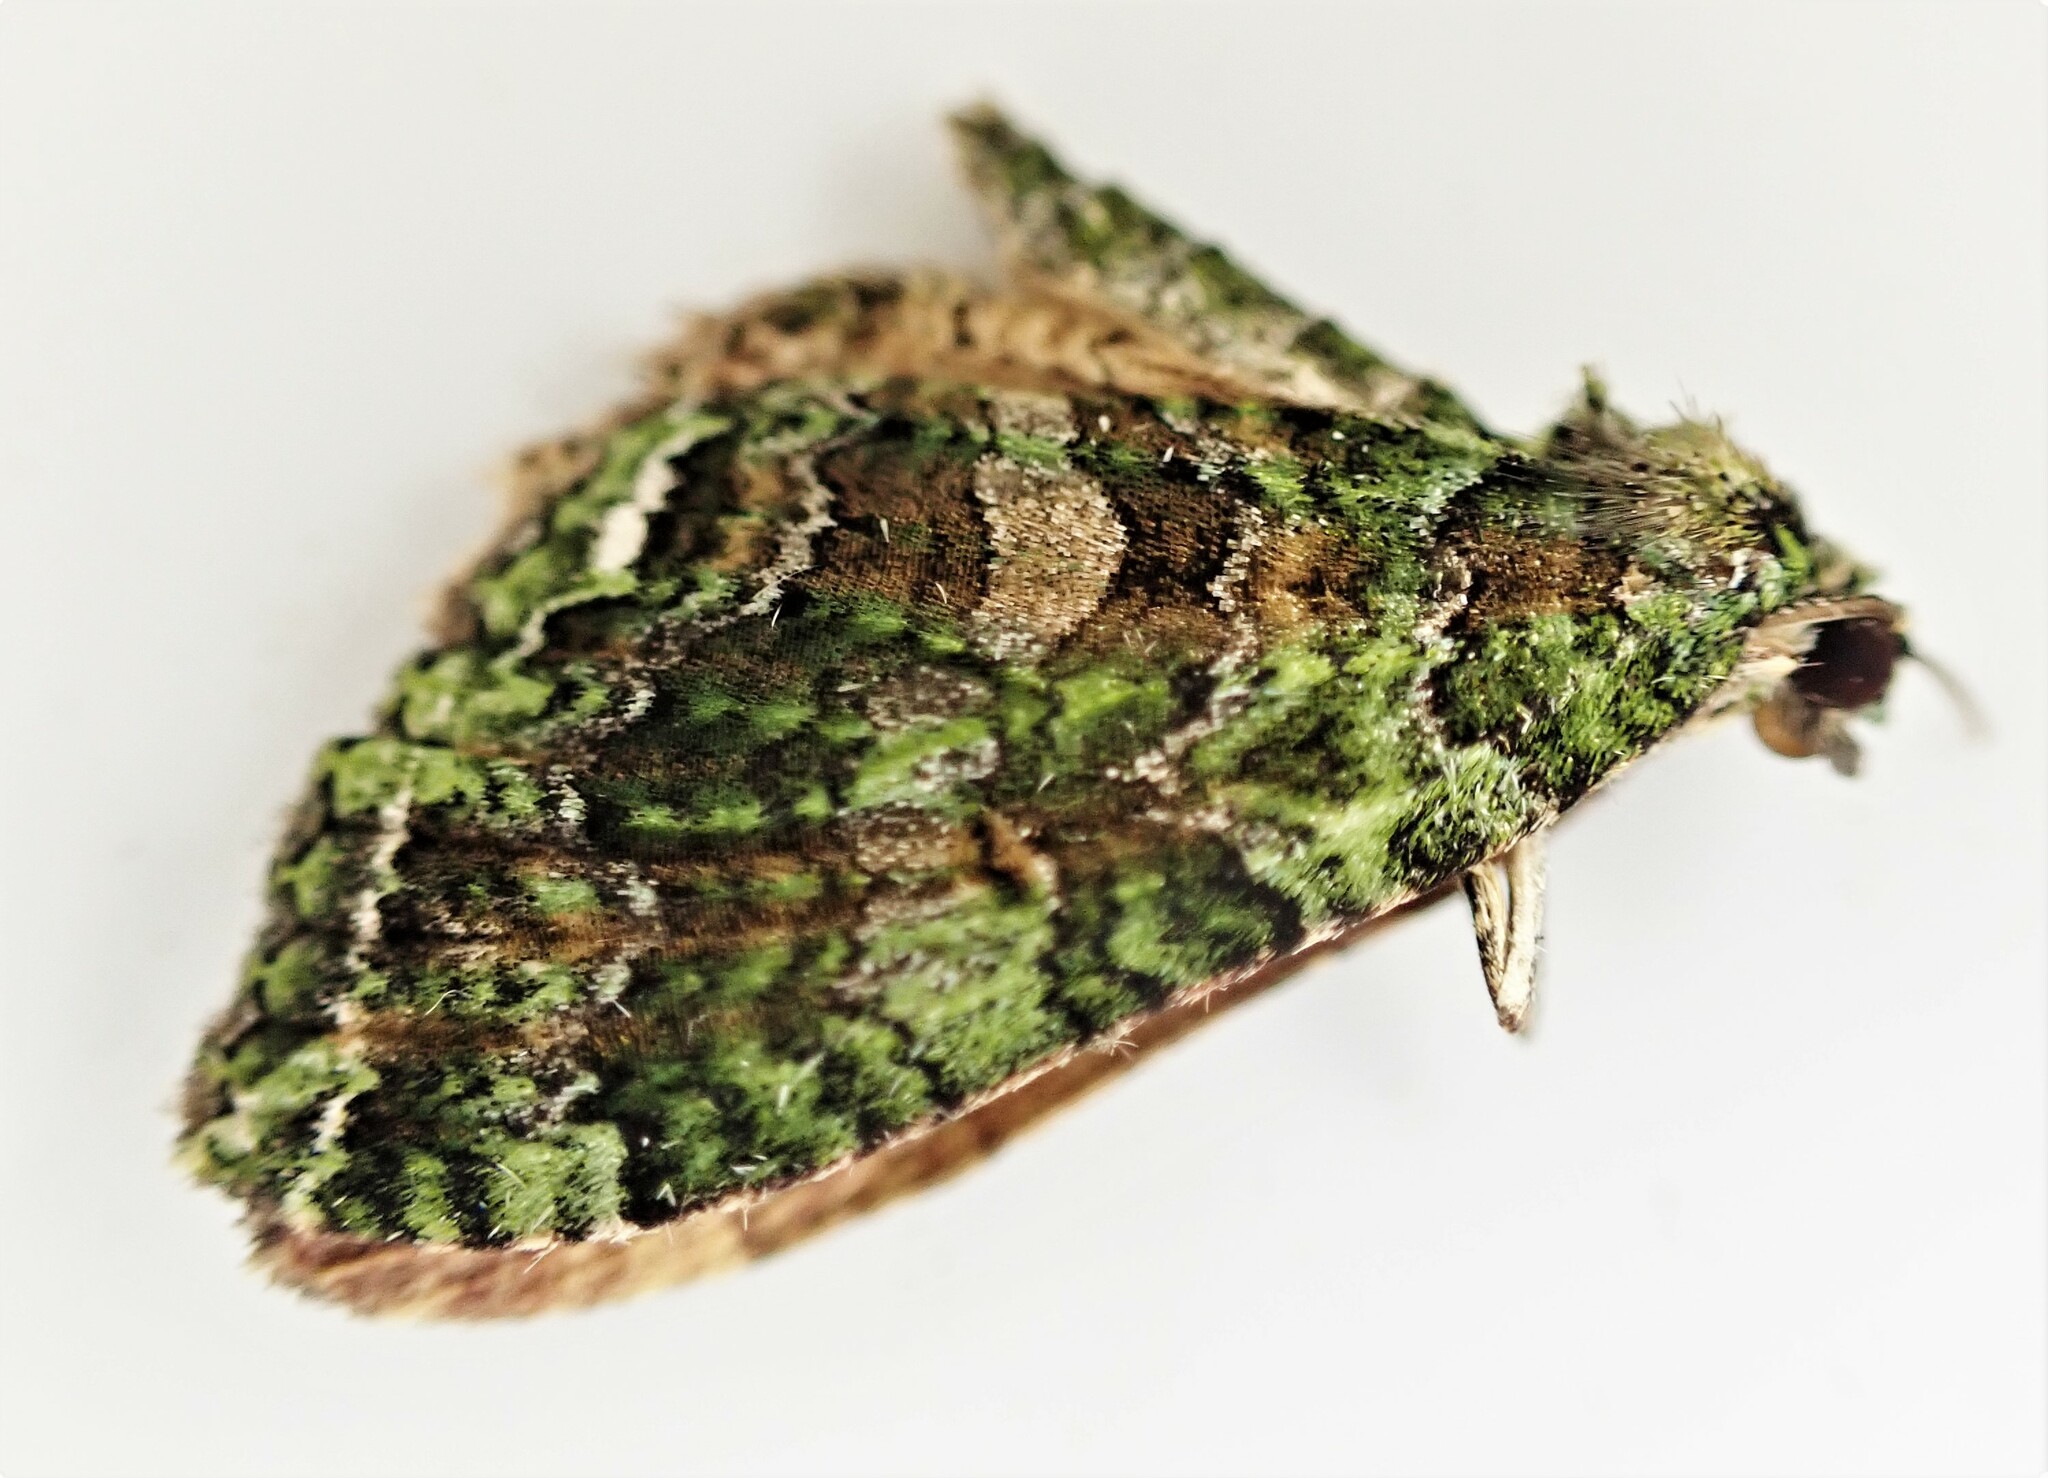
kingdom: Animalia
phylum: Arthropoda
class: Insecta
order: Lepidoptera
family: Geometridae
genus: Austrocidaria
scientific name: Austrocidaria similata
